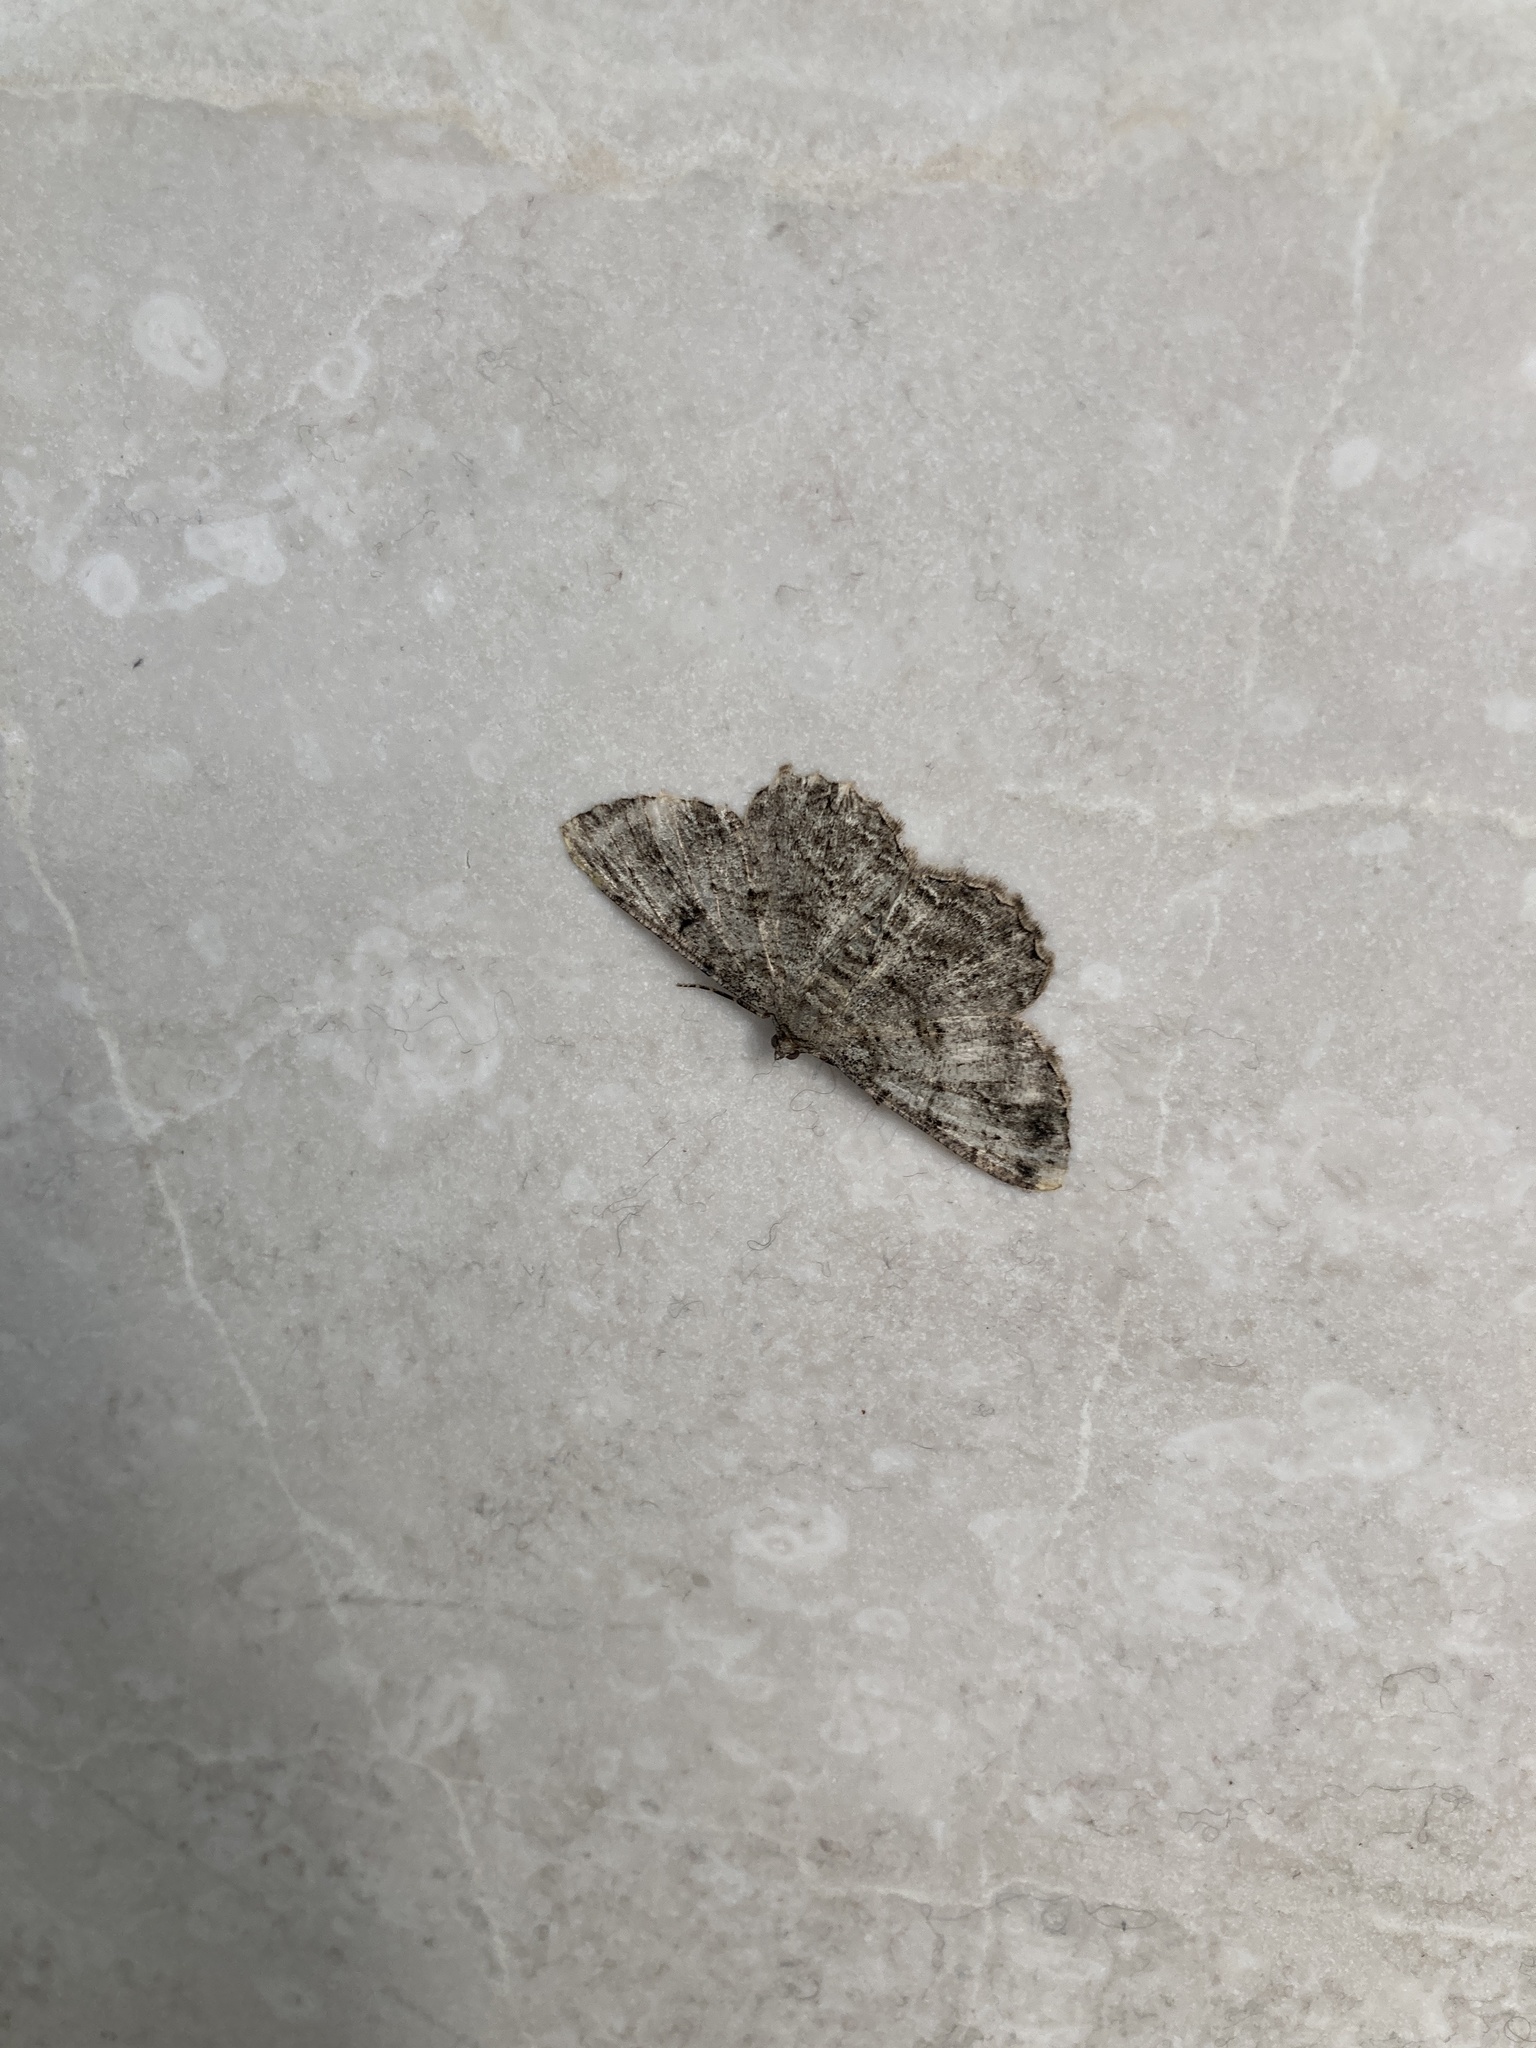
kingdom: Animalia
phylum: Arthropoda
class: Insecta
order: Lepidoptera
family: Geometridae
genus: Peribatodes
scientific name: Peribatodes rhomboidaria
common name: Willow beauty
